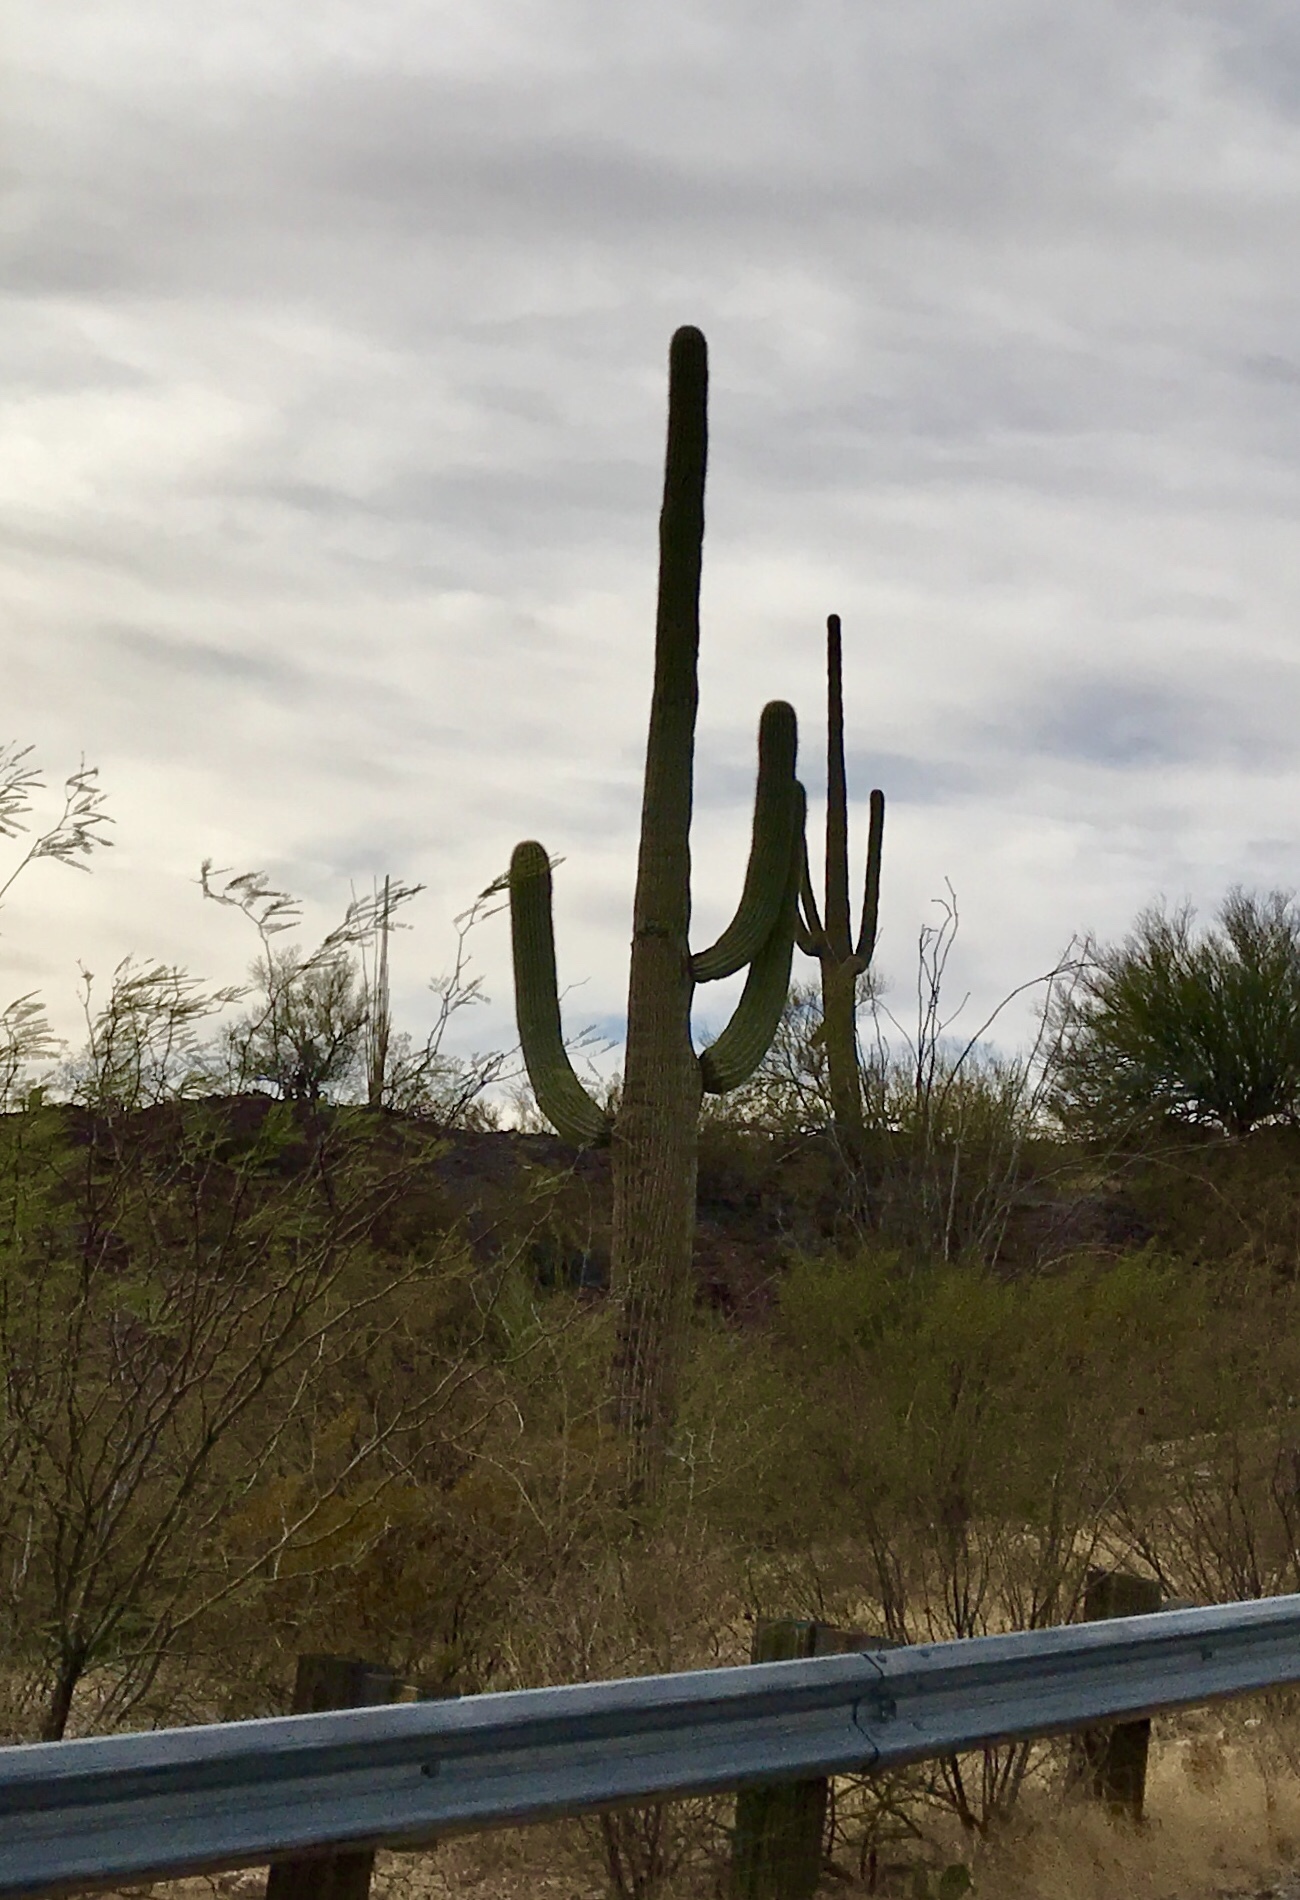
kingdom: Plantae
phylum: Tracheophyta
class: Magnoliopsida
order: Caryophyllales
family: Cactaceae
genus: Carnegiea
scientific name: Carnegiea gigantea
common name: Saguaro
